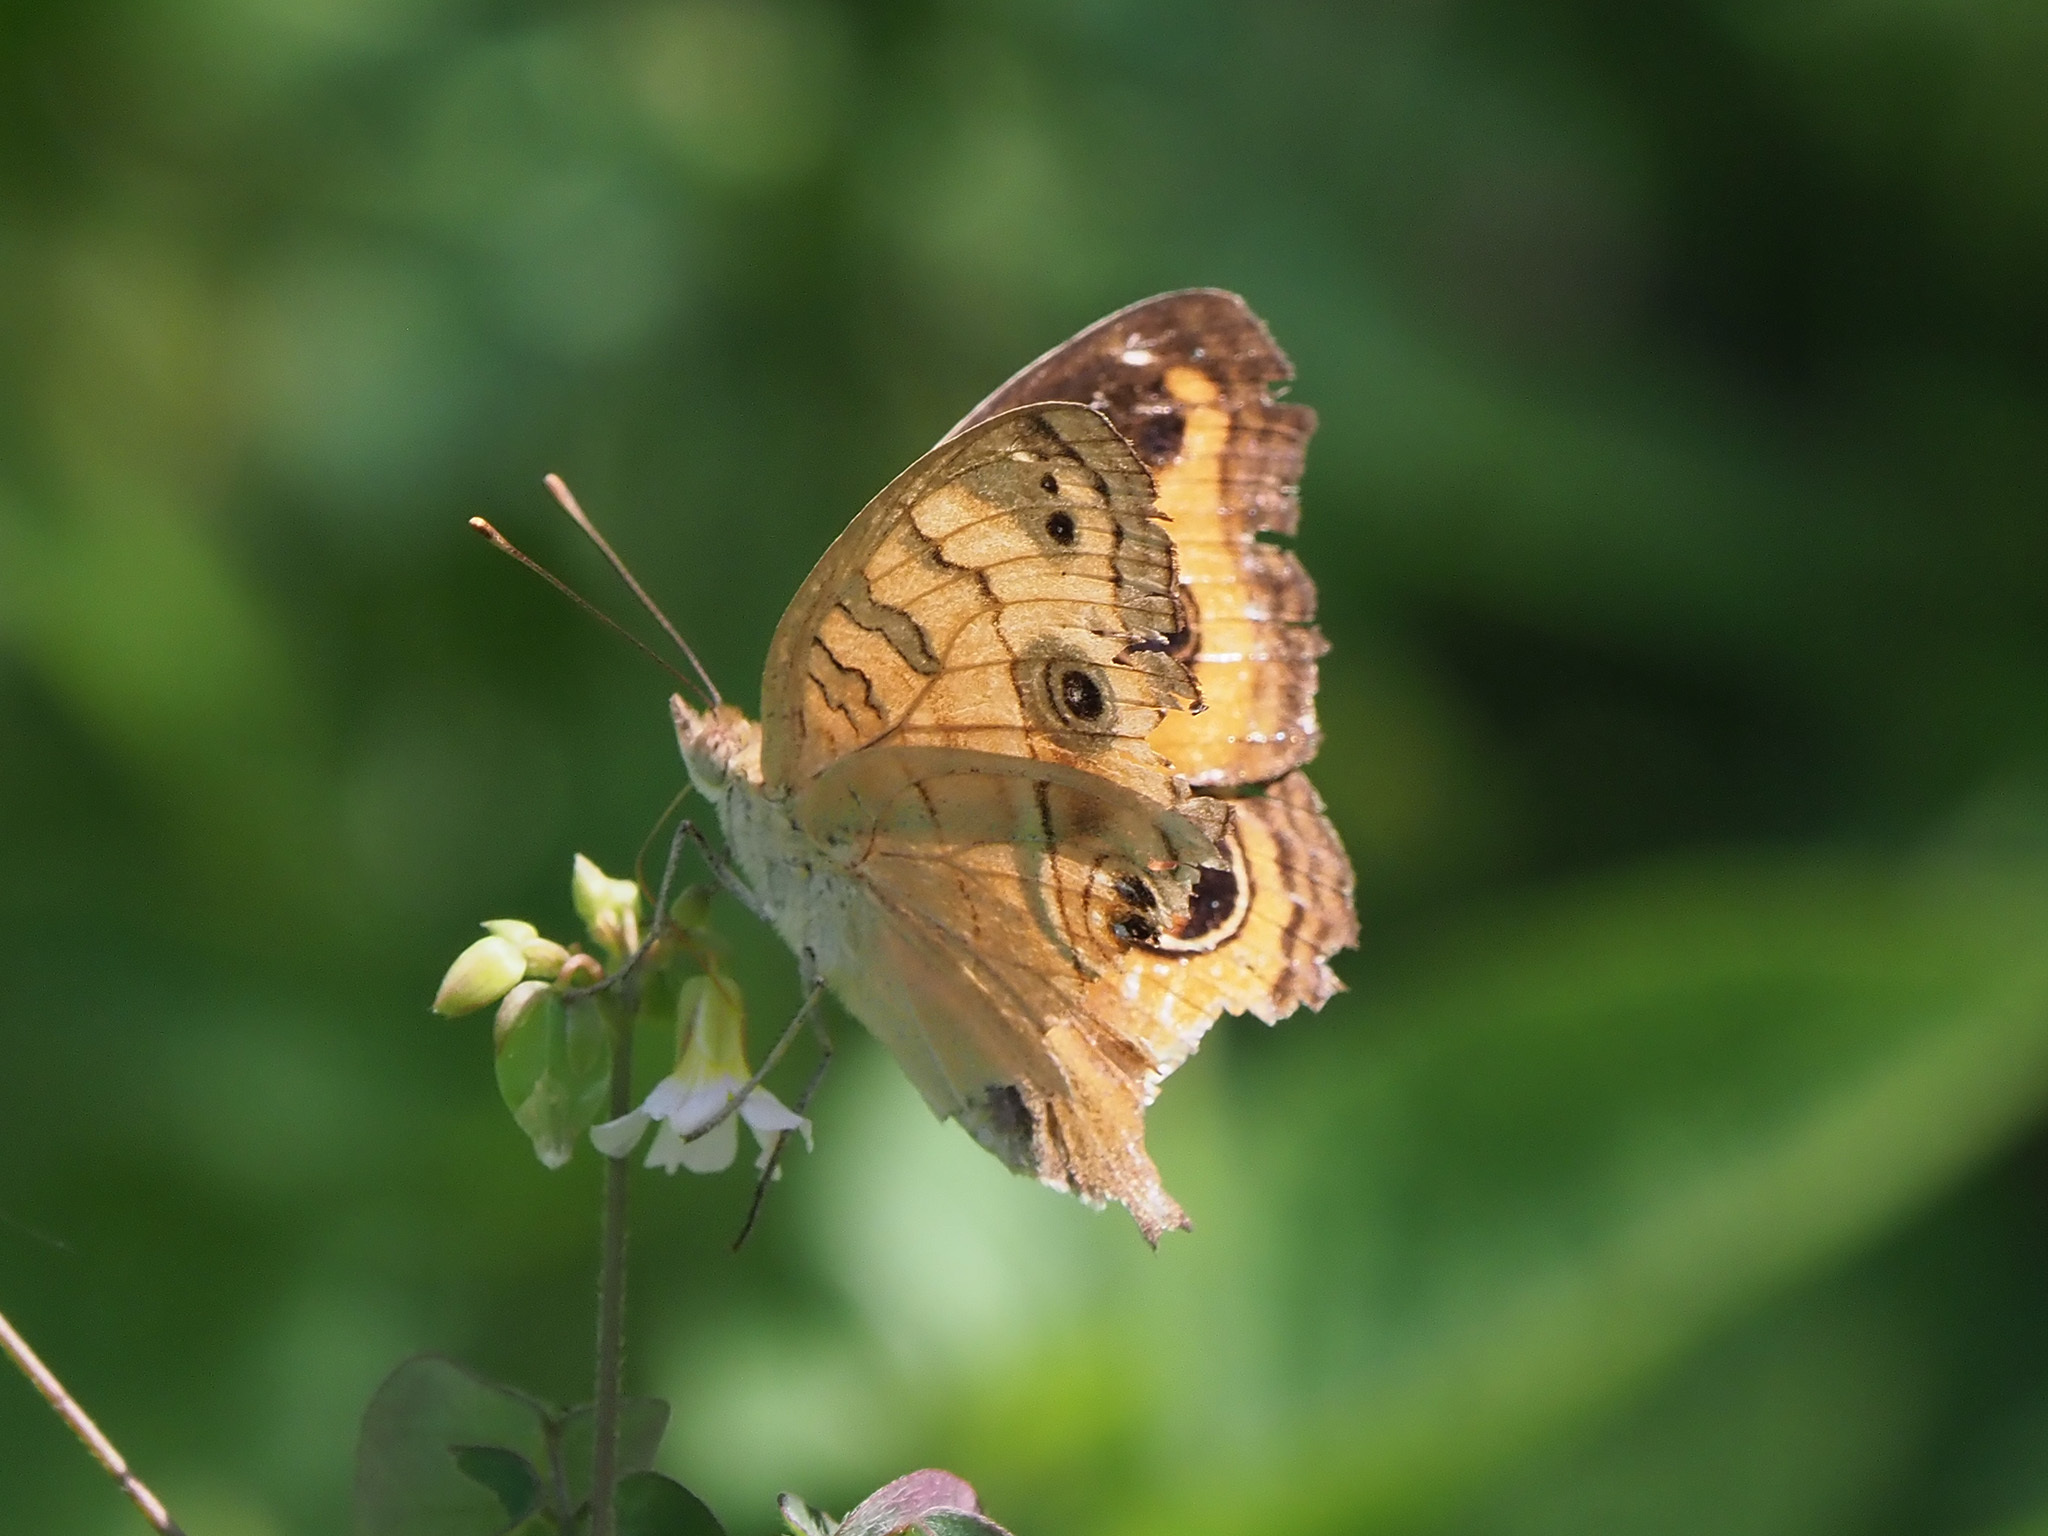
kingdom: Animalia
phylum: Arthropoda
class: Insecta
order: Lepidoptera
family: Nymphalidae
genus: Junonia
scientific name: Junonia almana
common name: Peacock pansy
